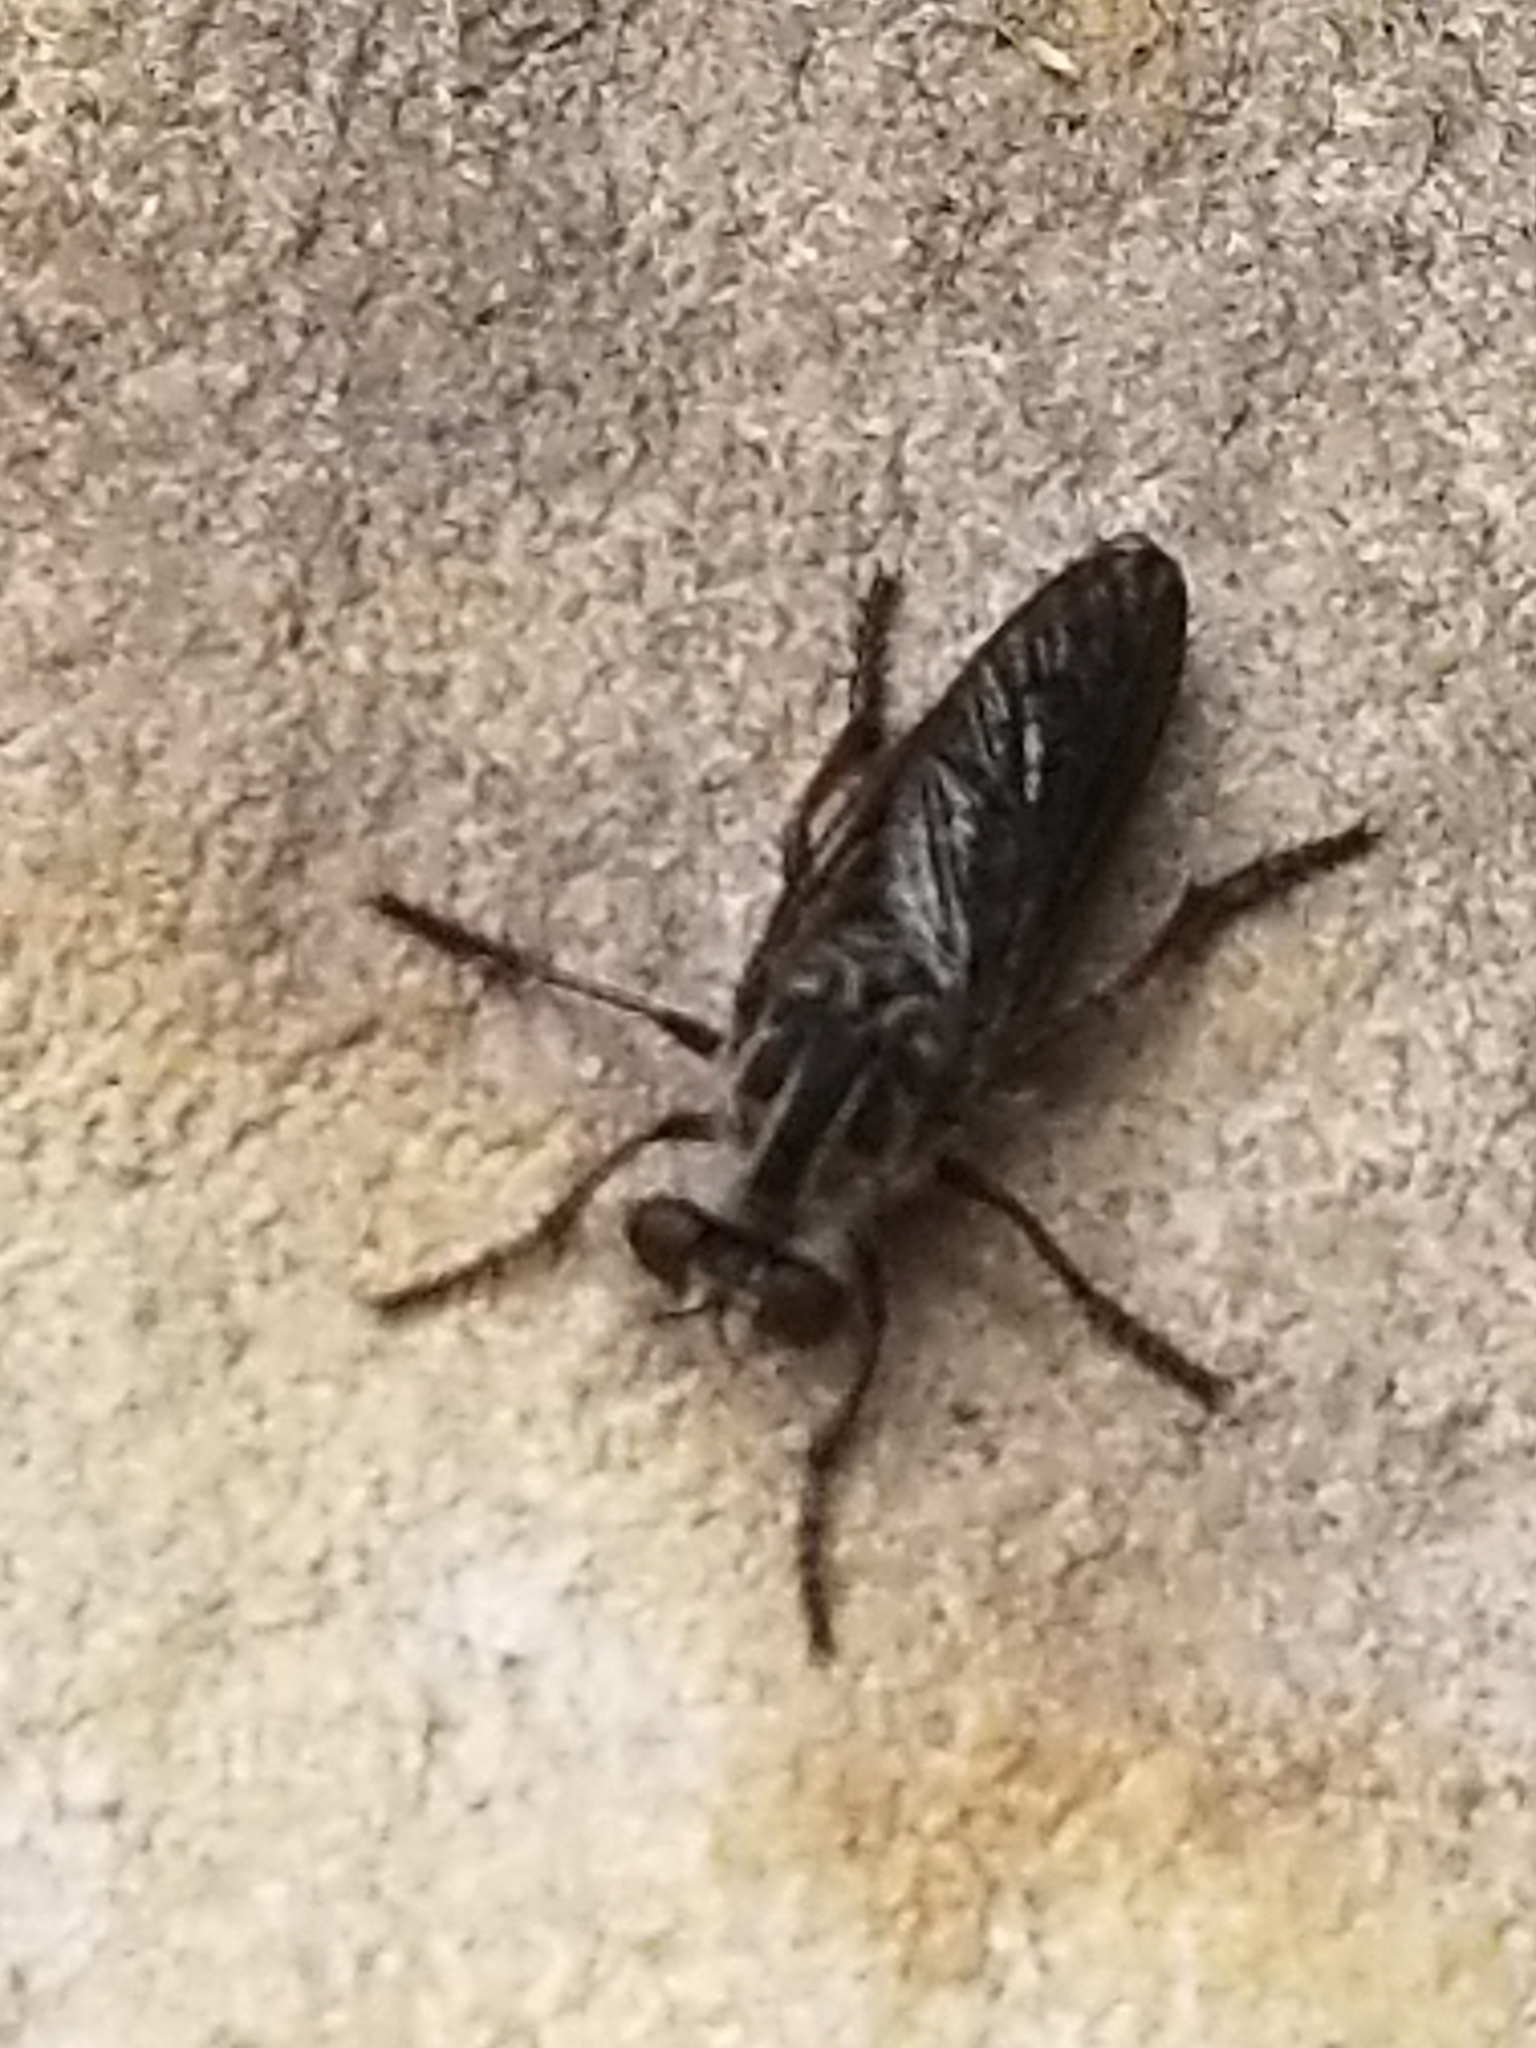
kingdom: Animalia
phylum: Arthropoda
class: Insecta
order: Diptera
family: Asilidae
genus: Heteropogon
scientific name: Heteropogon macerinus
